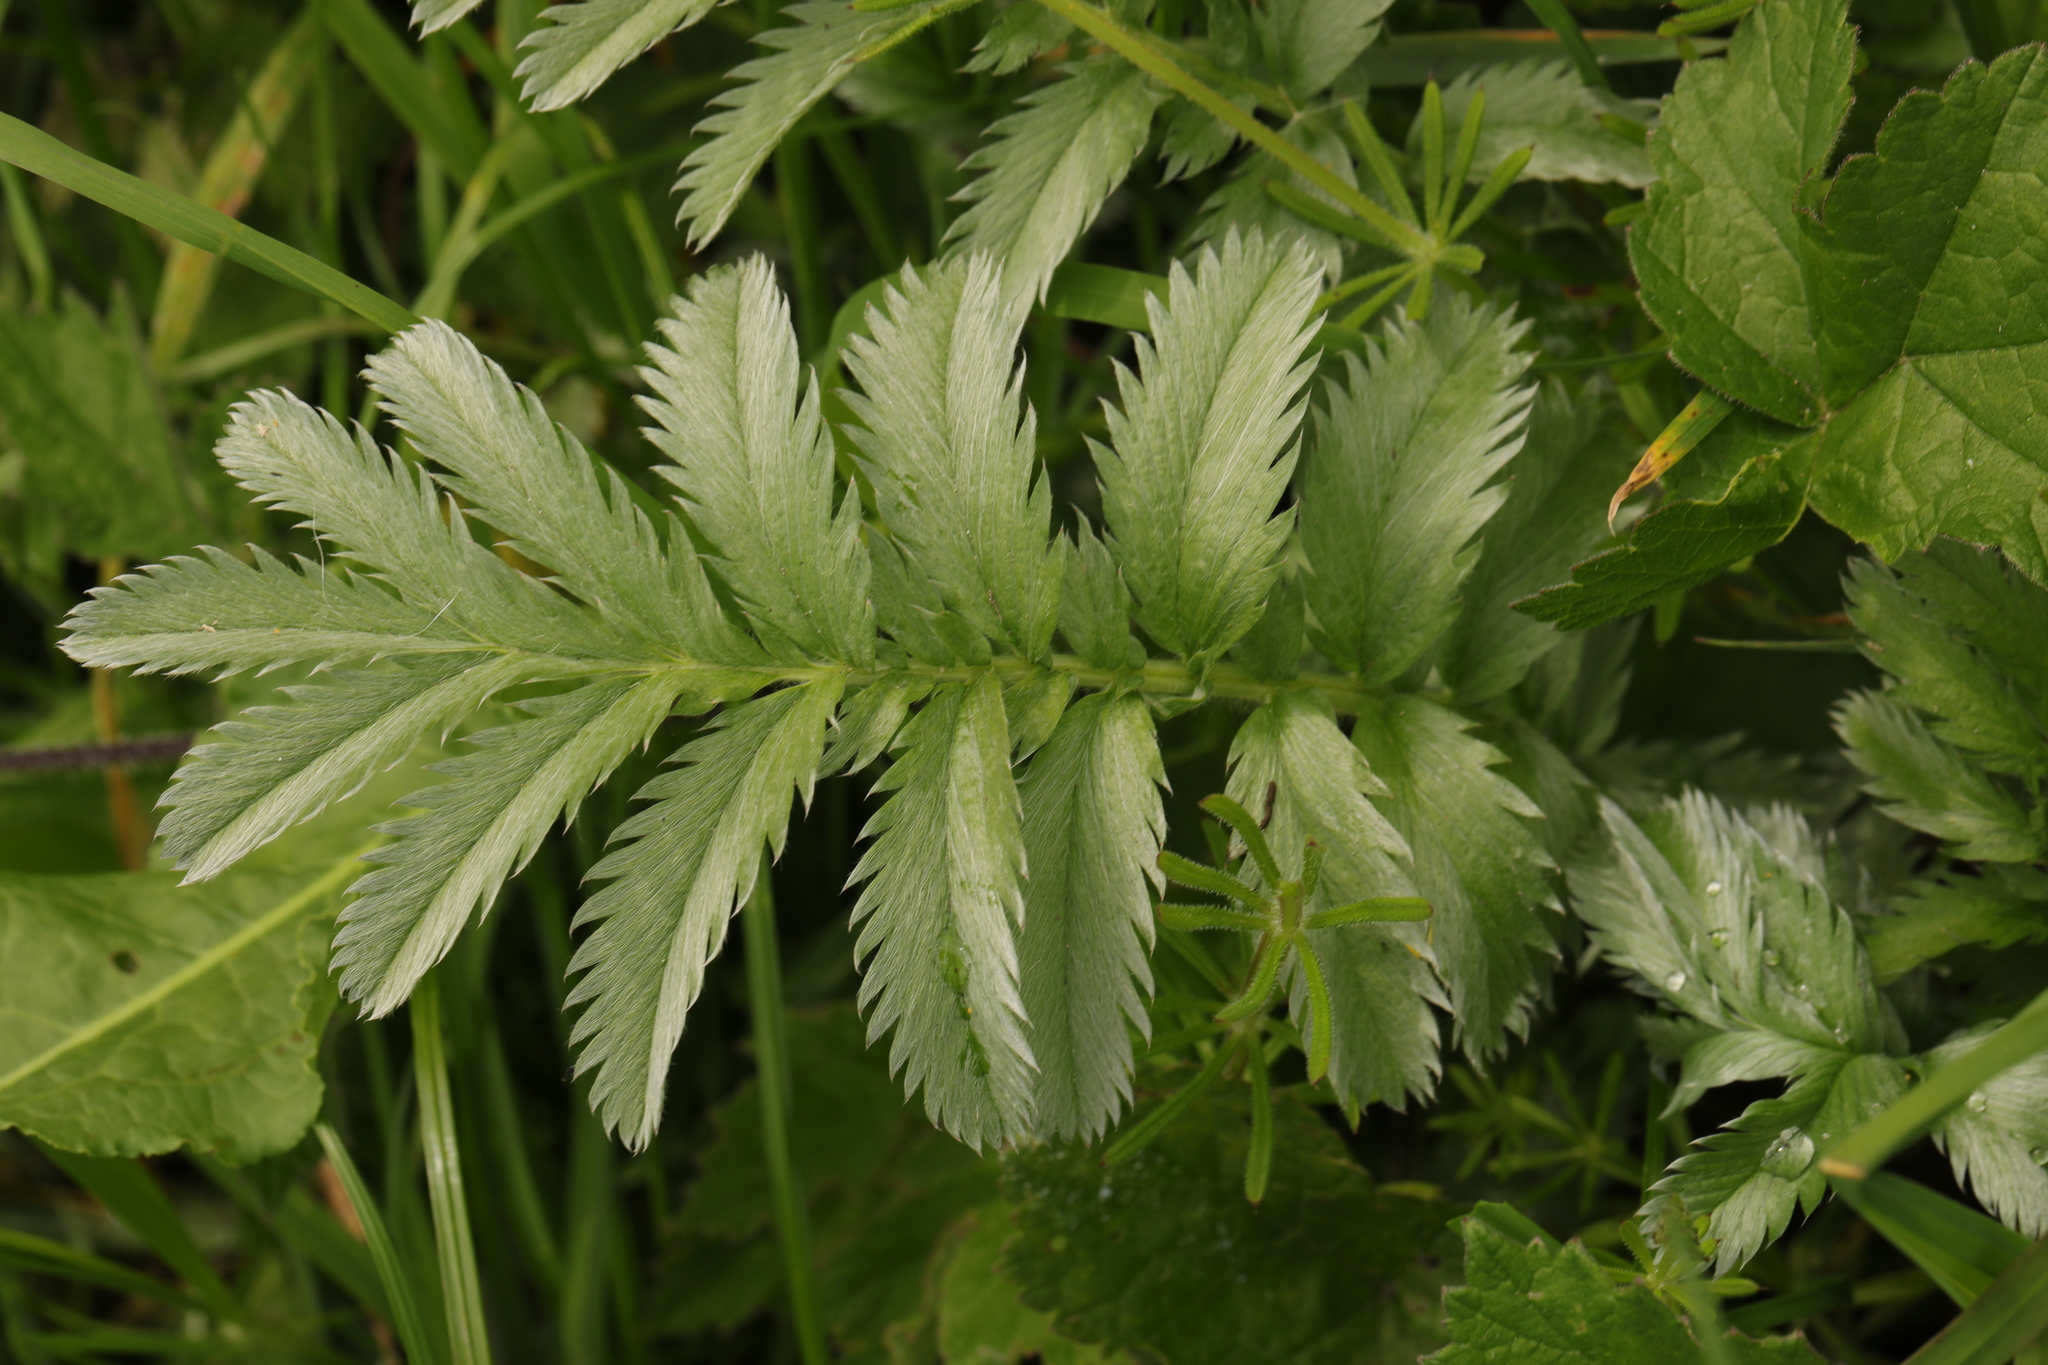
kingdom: Plantae
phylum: Tracheophyta
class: Magnoliopsida
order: Rosales
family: Rosaceae
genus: Argentina
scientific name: Argentina anserina
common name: Common silverweed
